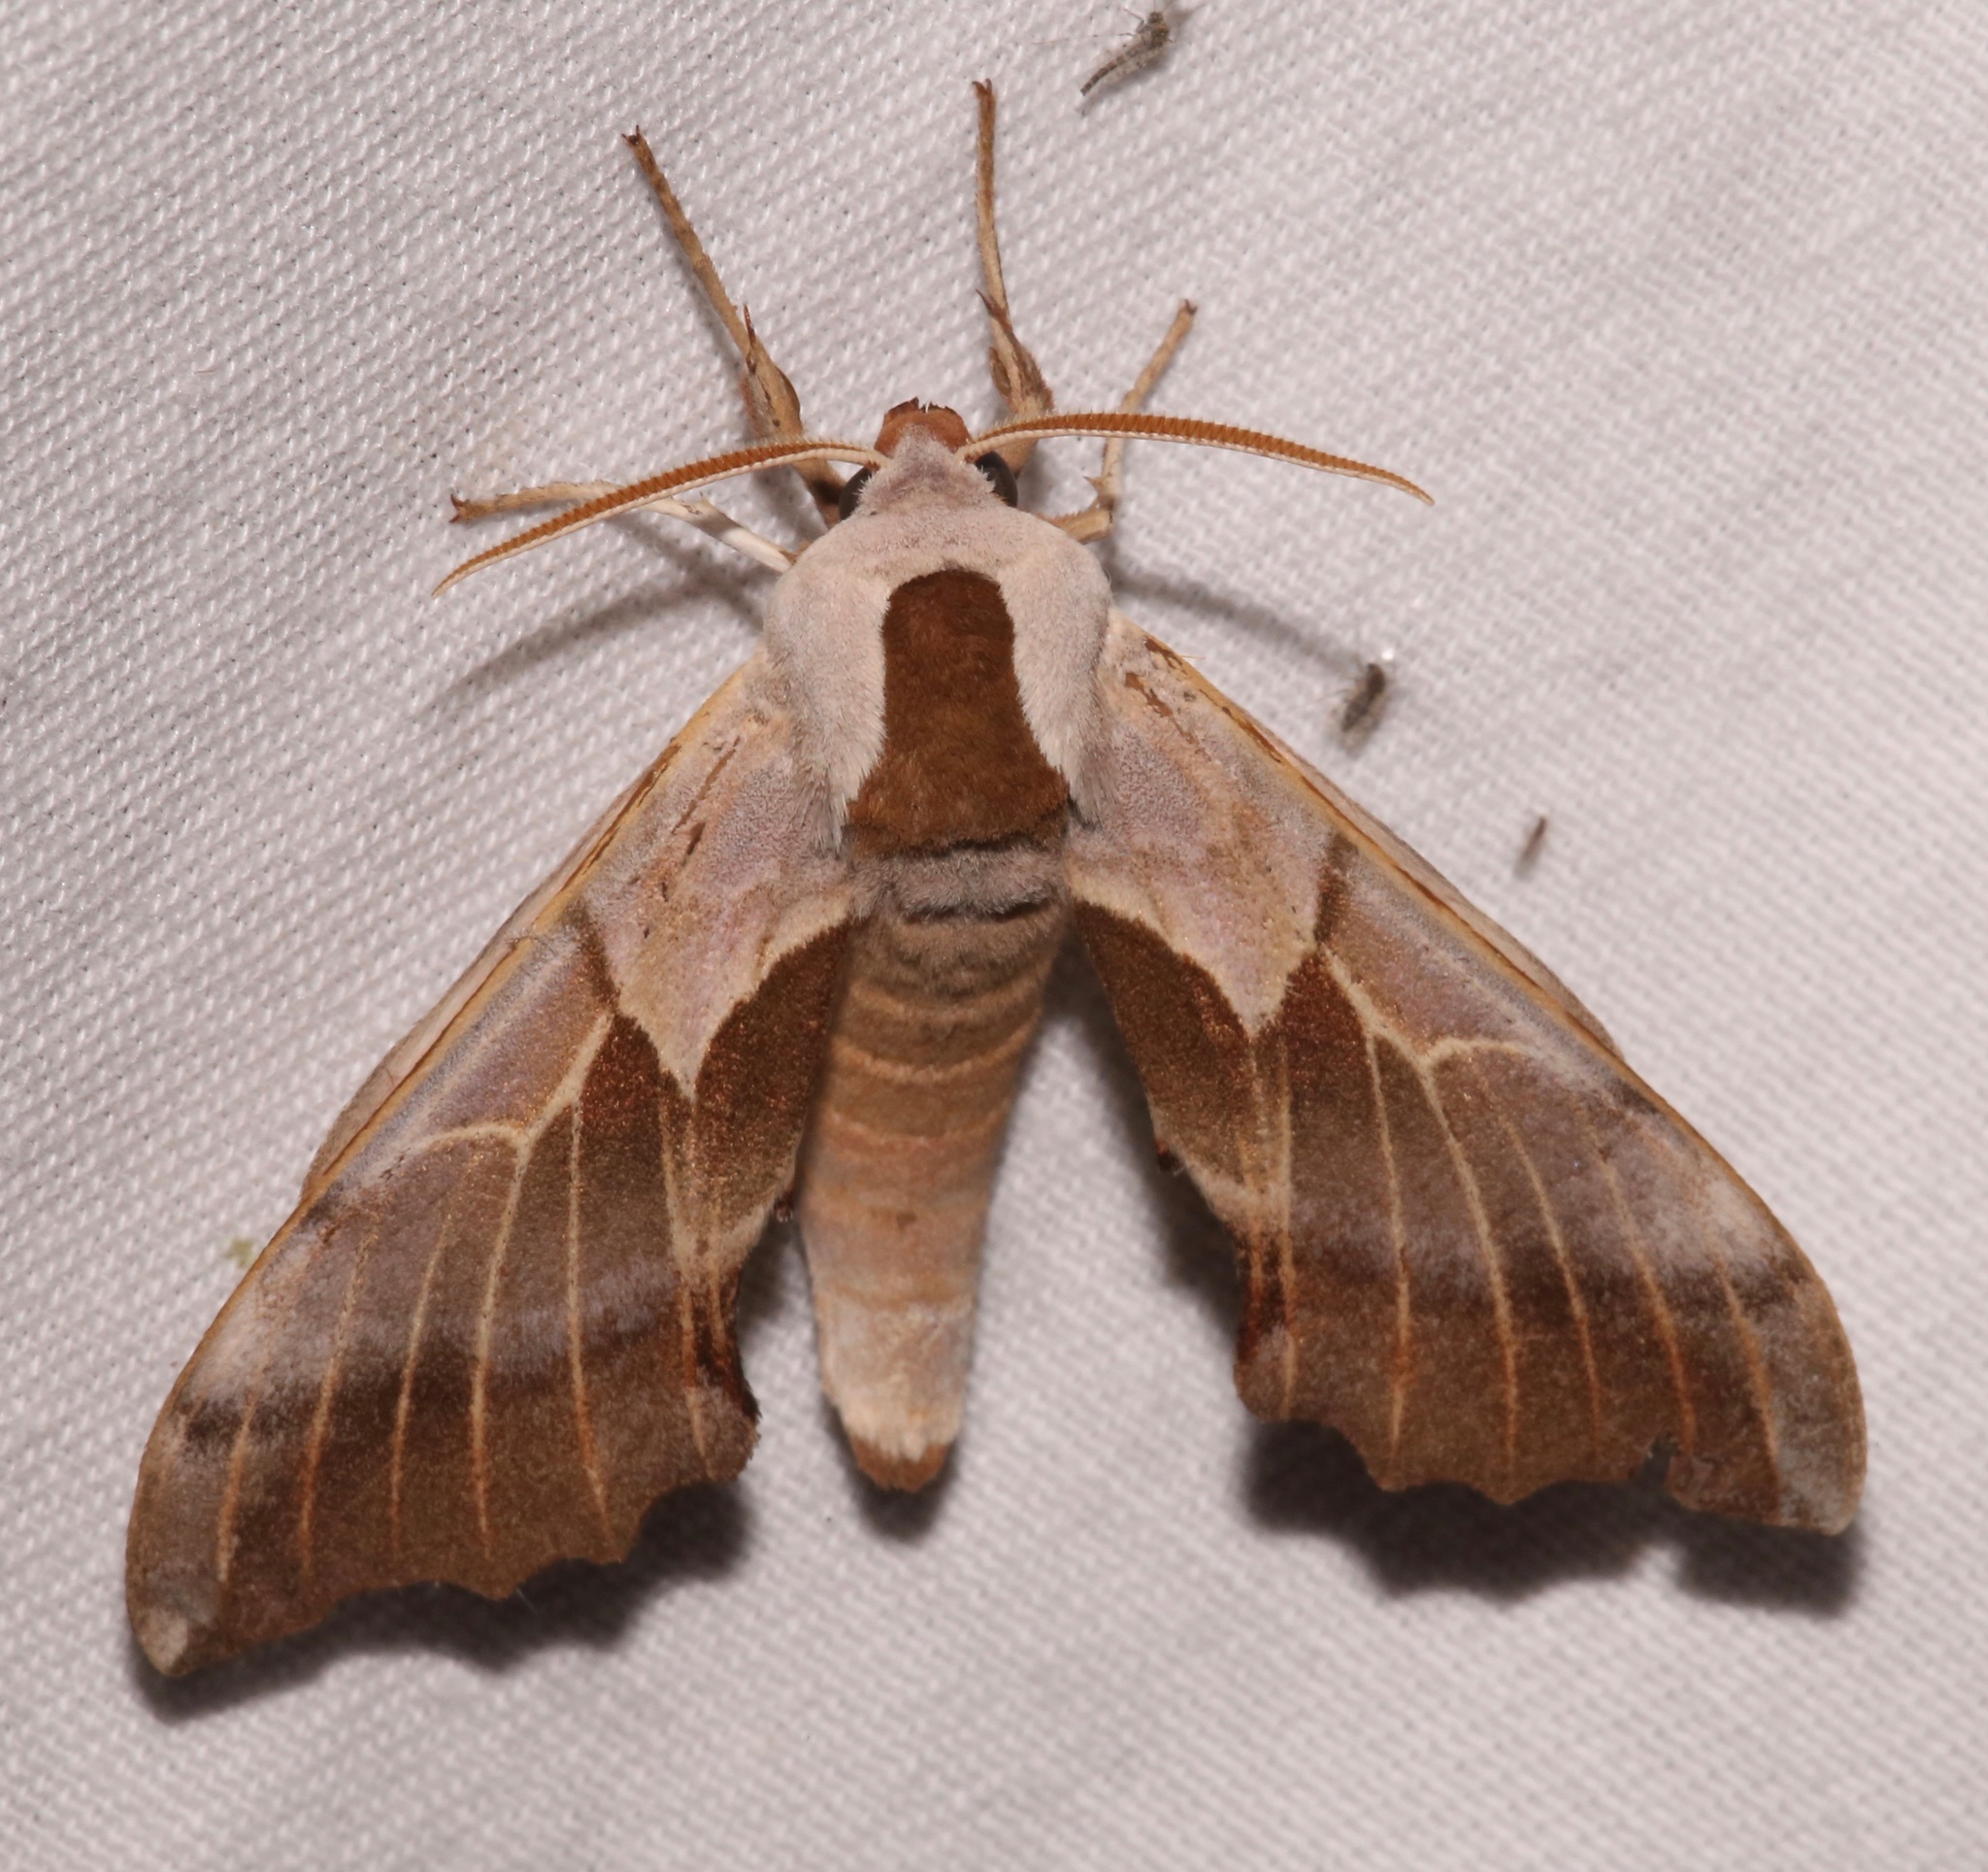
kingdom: Animalia
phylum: Arthropoda
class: Insecta
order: Lepidoptera
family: Sphingidae
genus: Smerinthus
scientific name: Smerinthus saliceti
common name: Salicet sphinx
